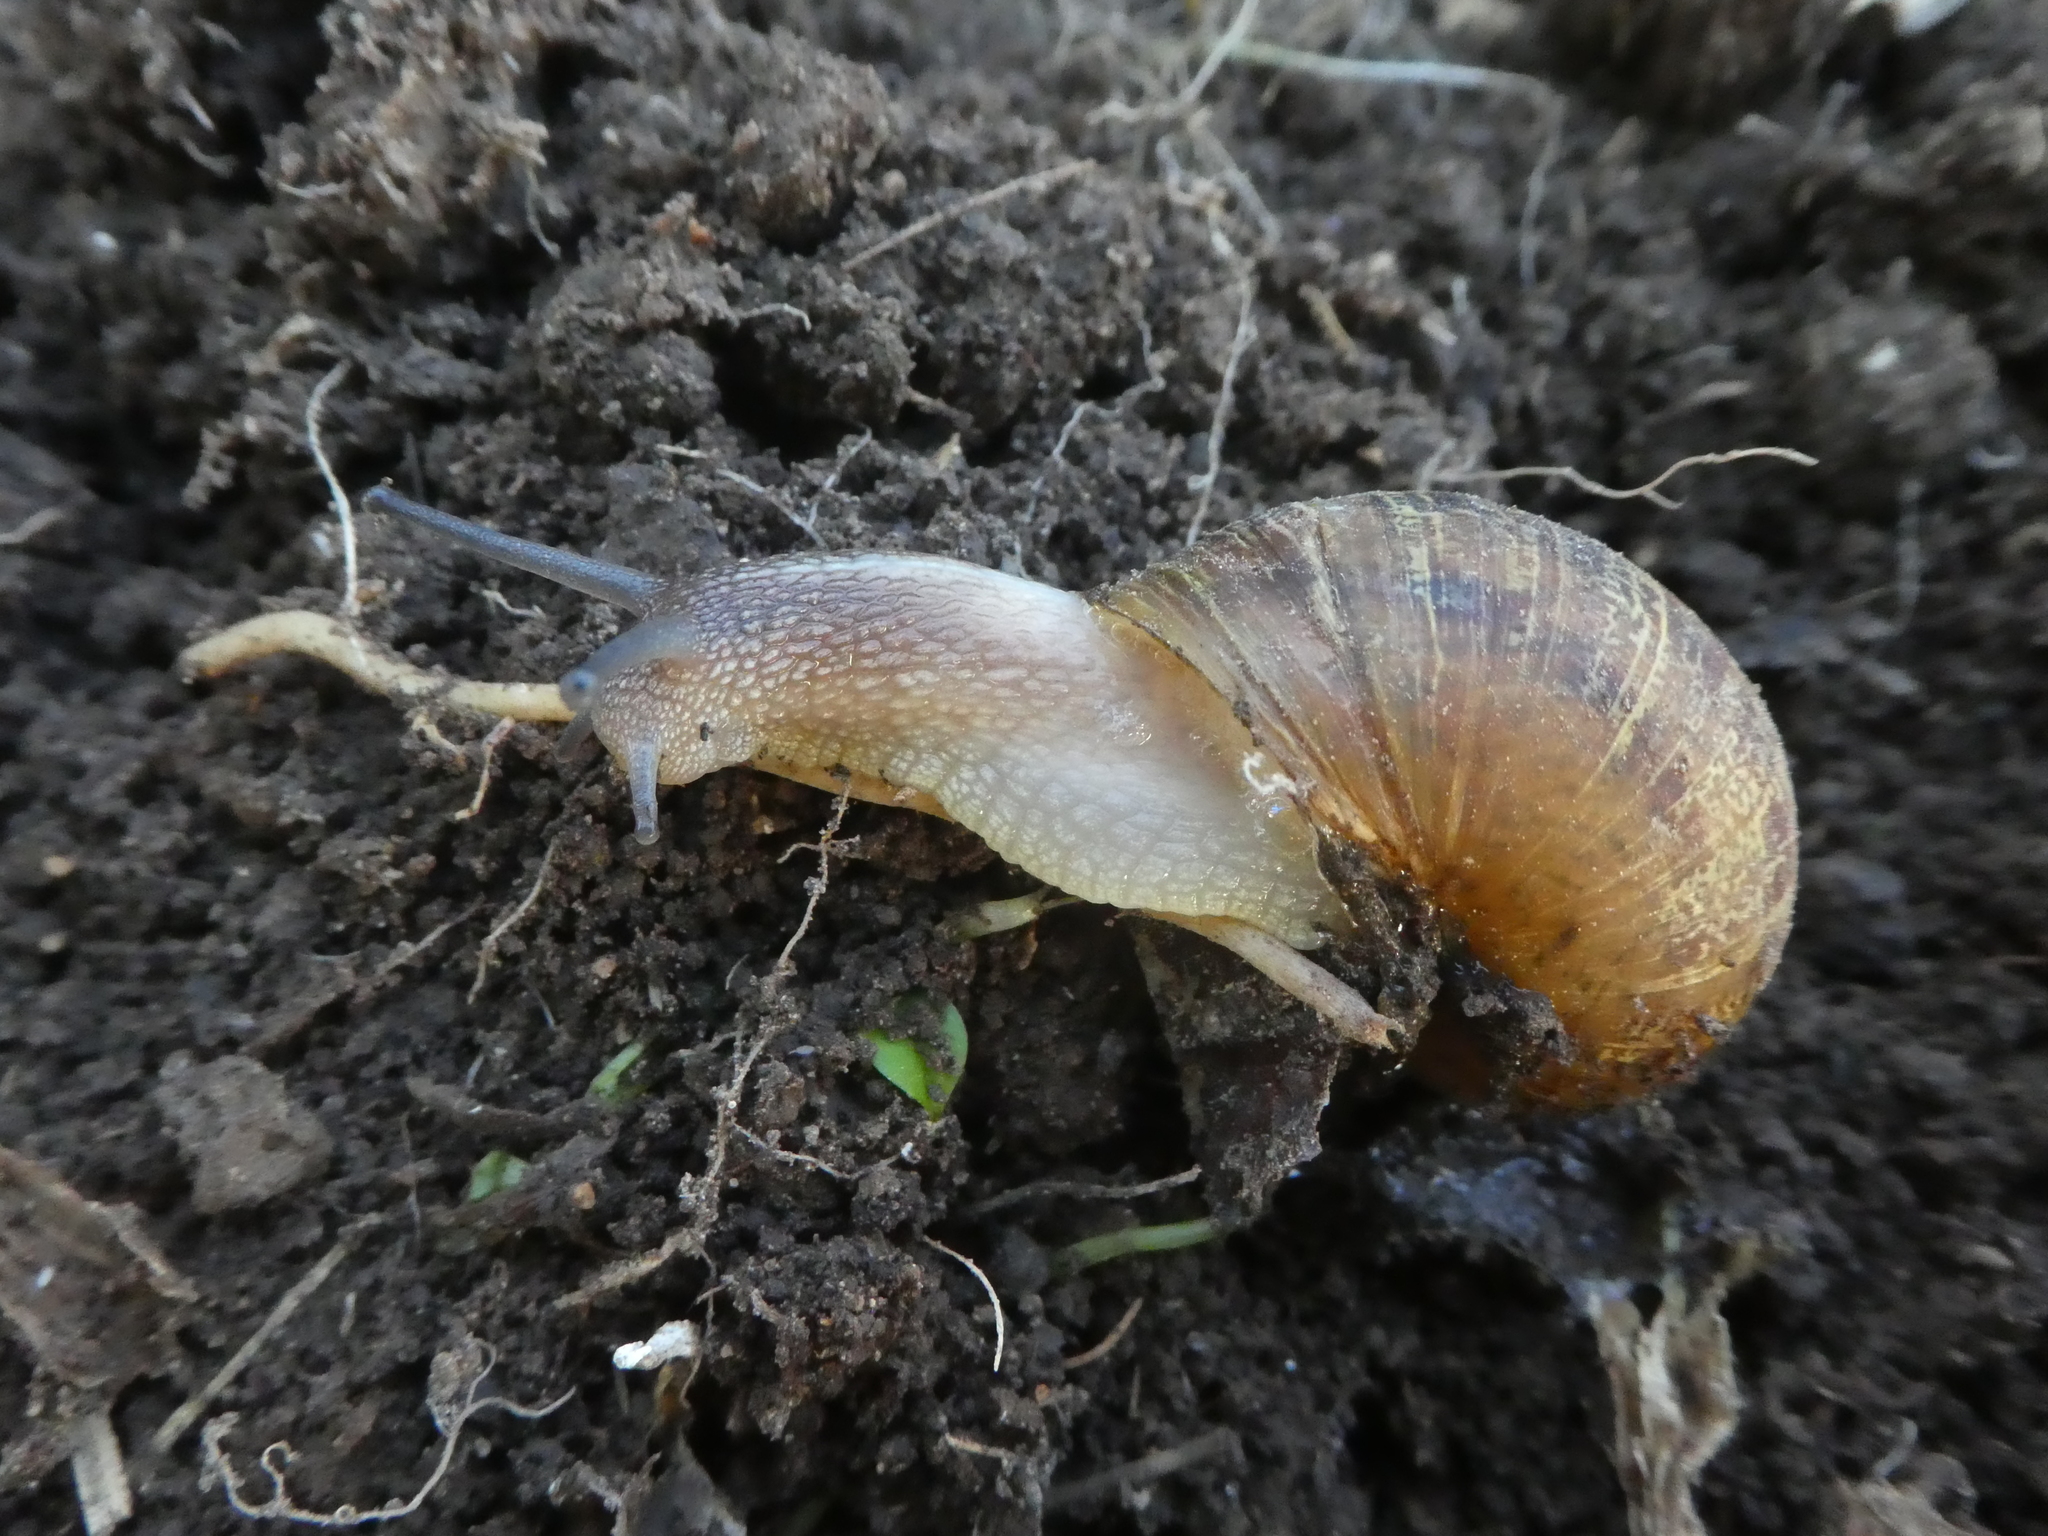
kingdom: Animalia
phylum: Mollusca
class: Gastropoda
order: Stylommatophora
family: Helicidae
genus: Cornu
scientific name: Cornu aspersum
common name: Brown garden snail
